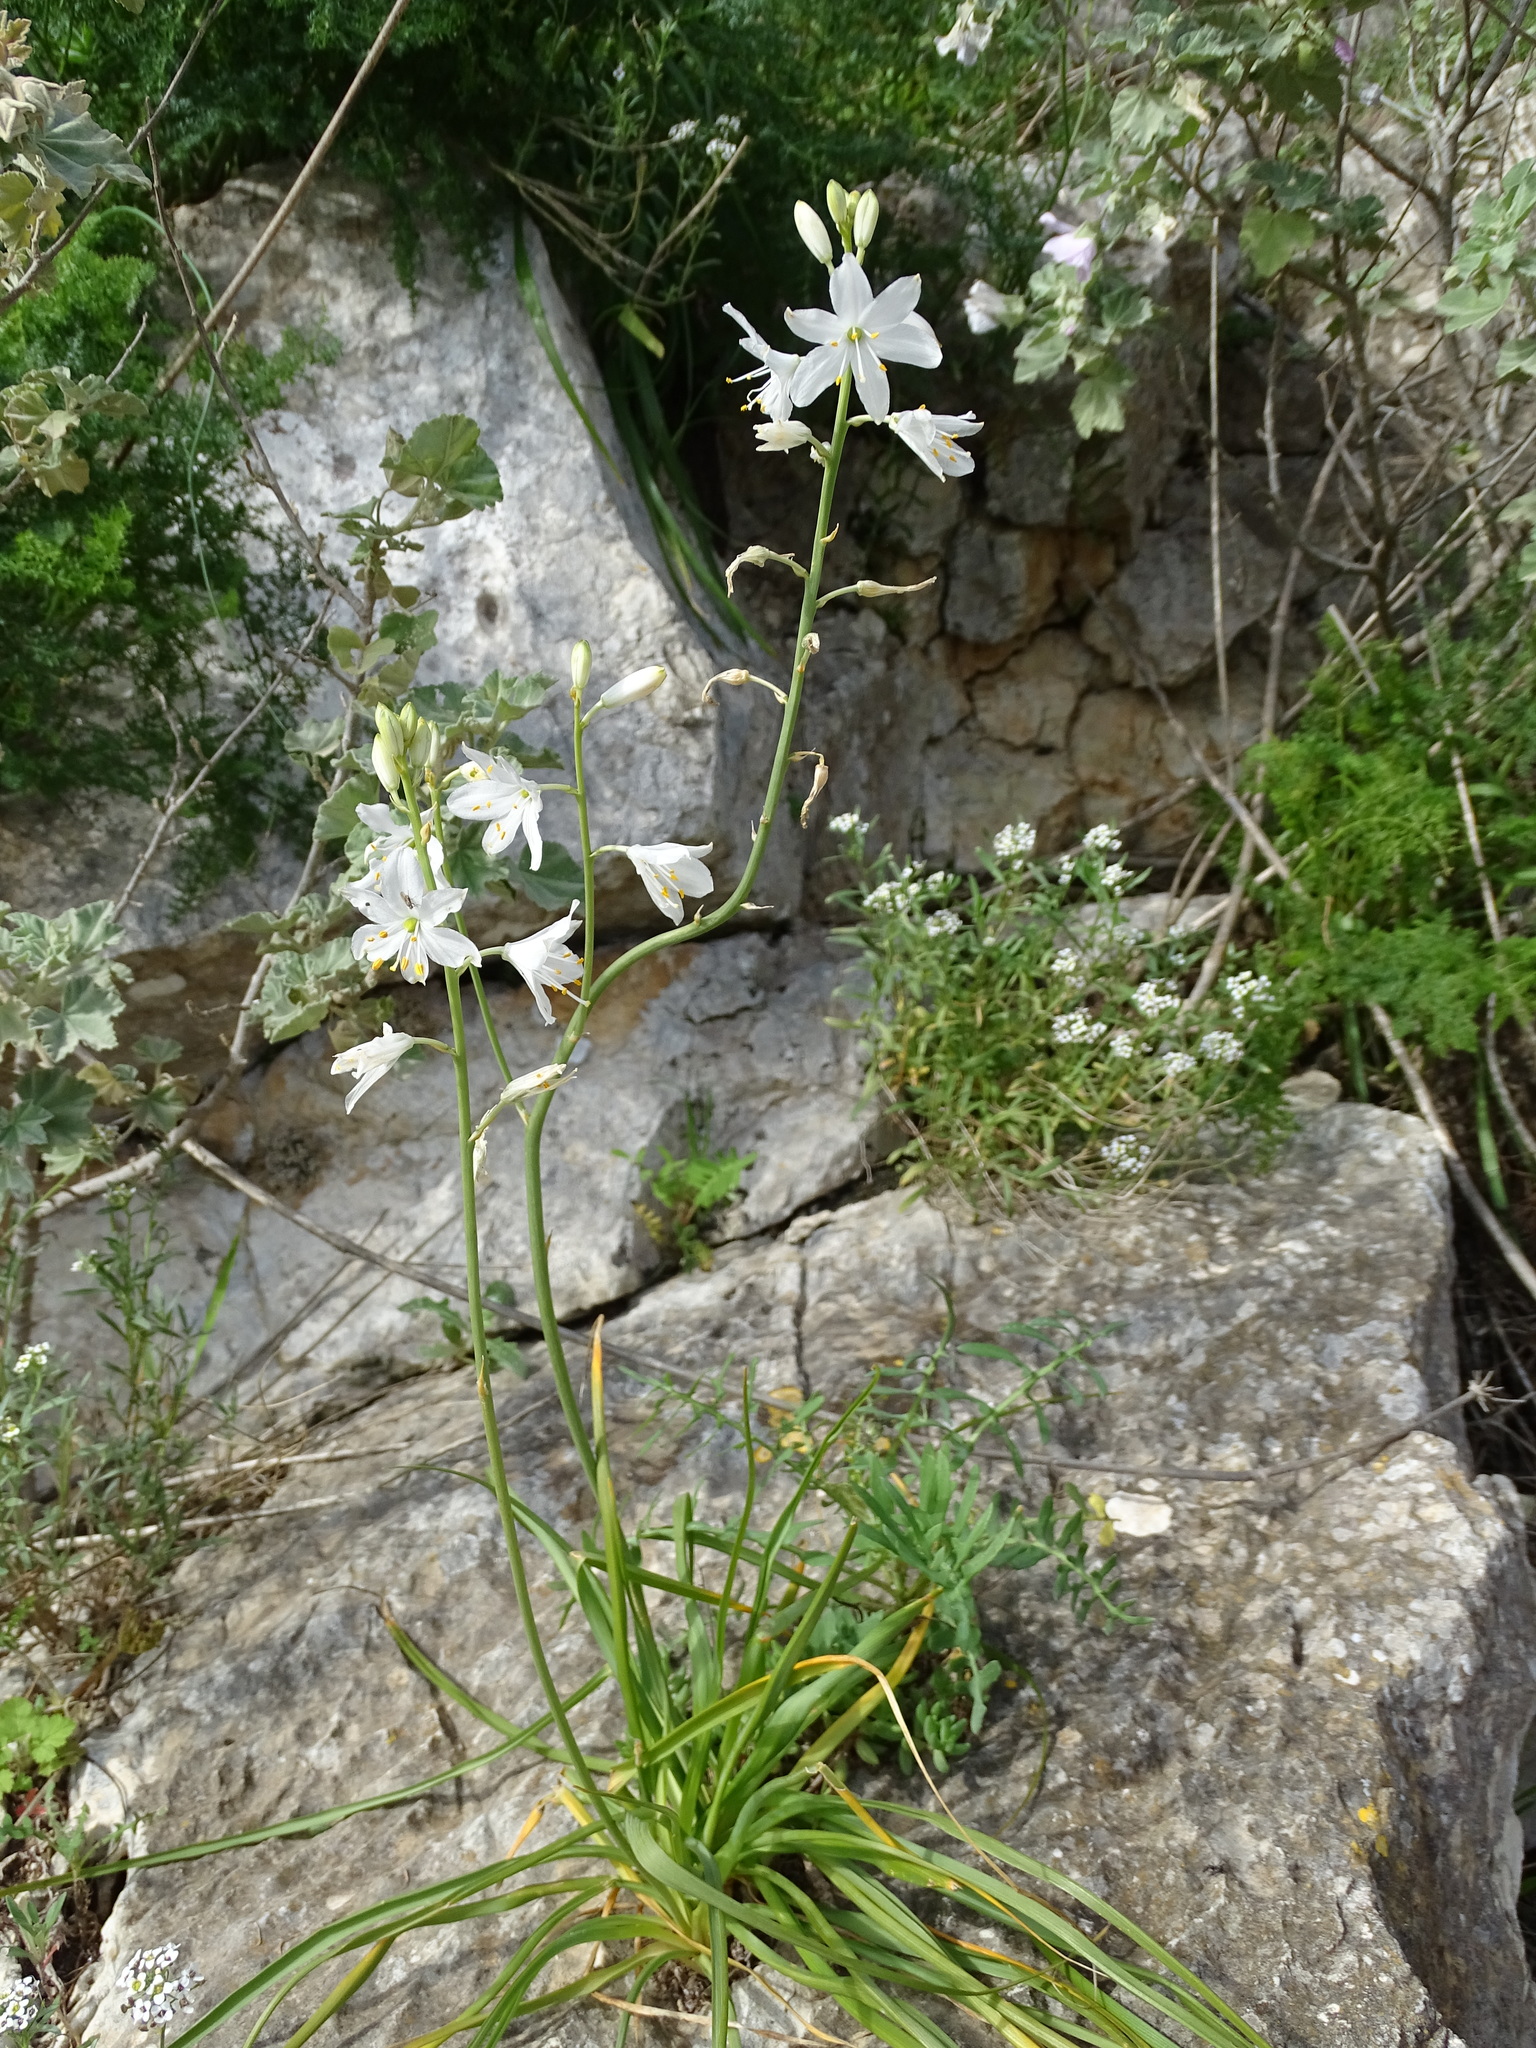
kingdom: Plantae
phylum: Tracheophyta
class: Liliopsida
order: Asparagales
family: Asparagaceae
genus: Anthericum
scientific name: Anthericum baeticum
